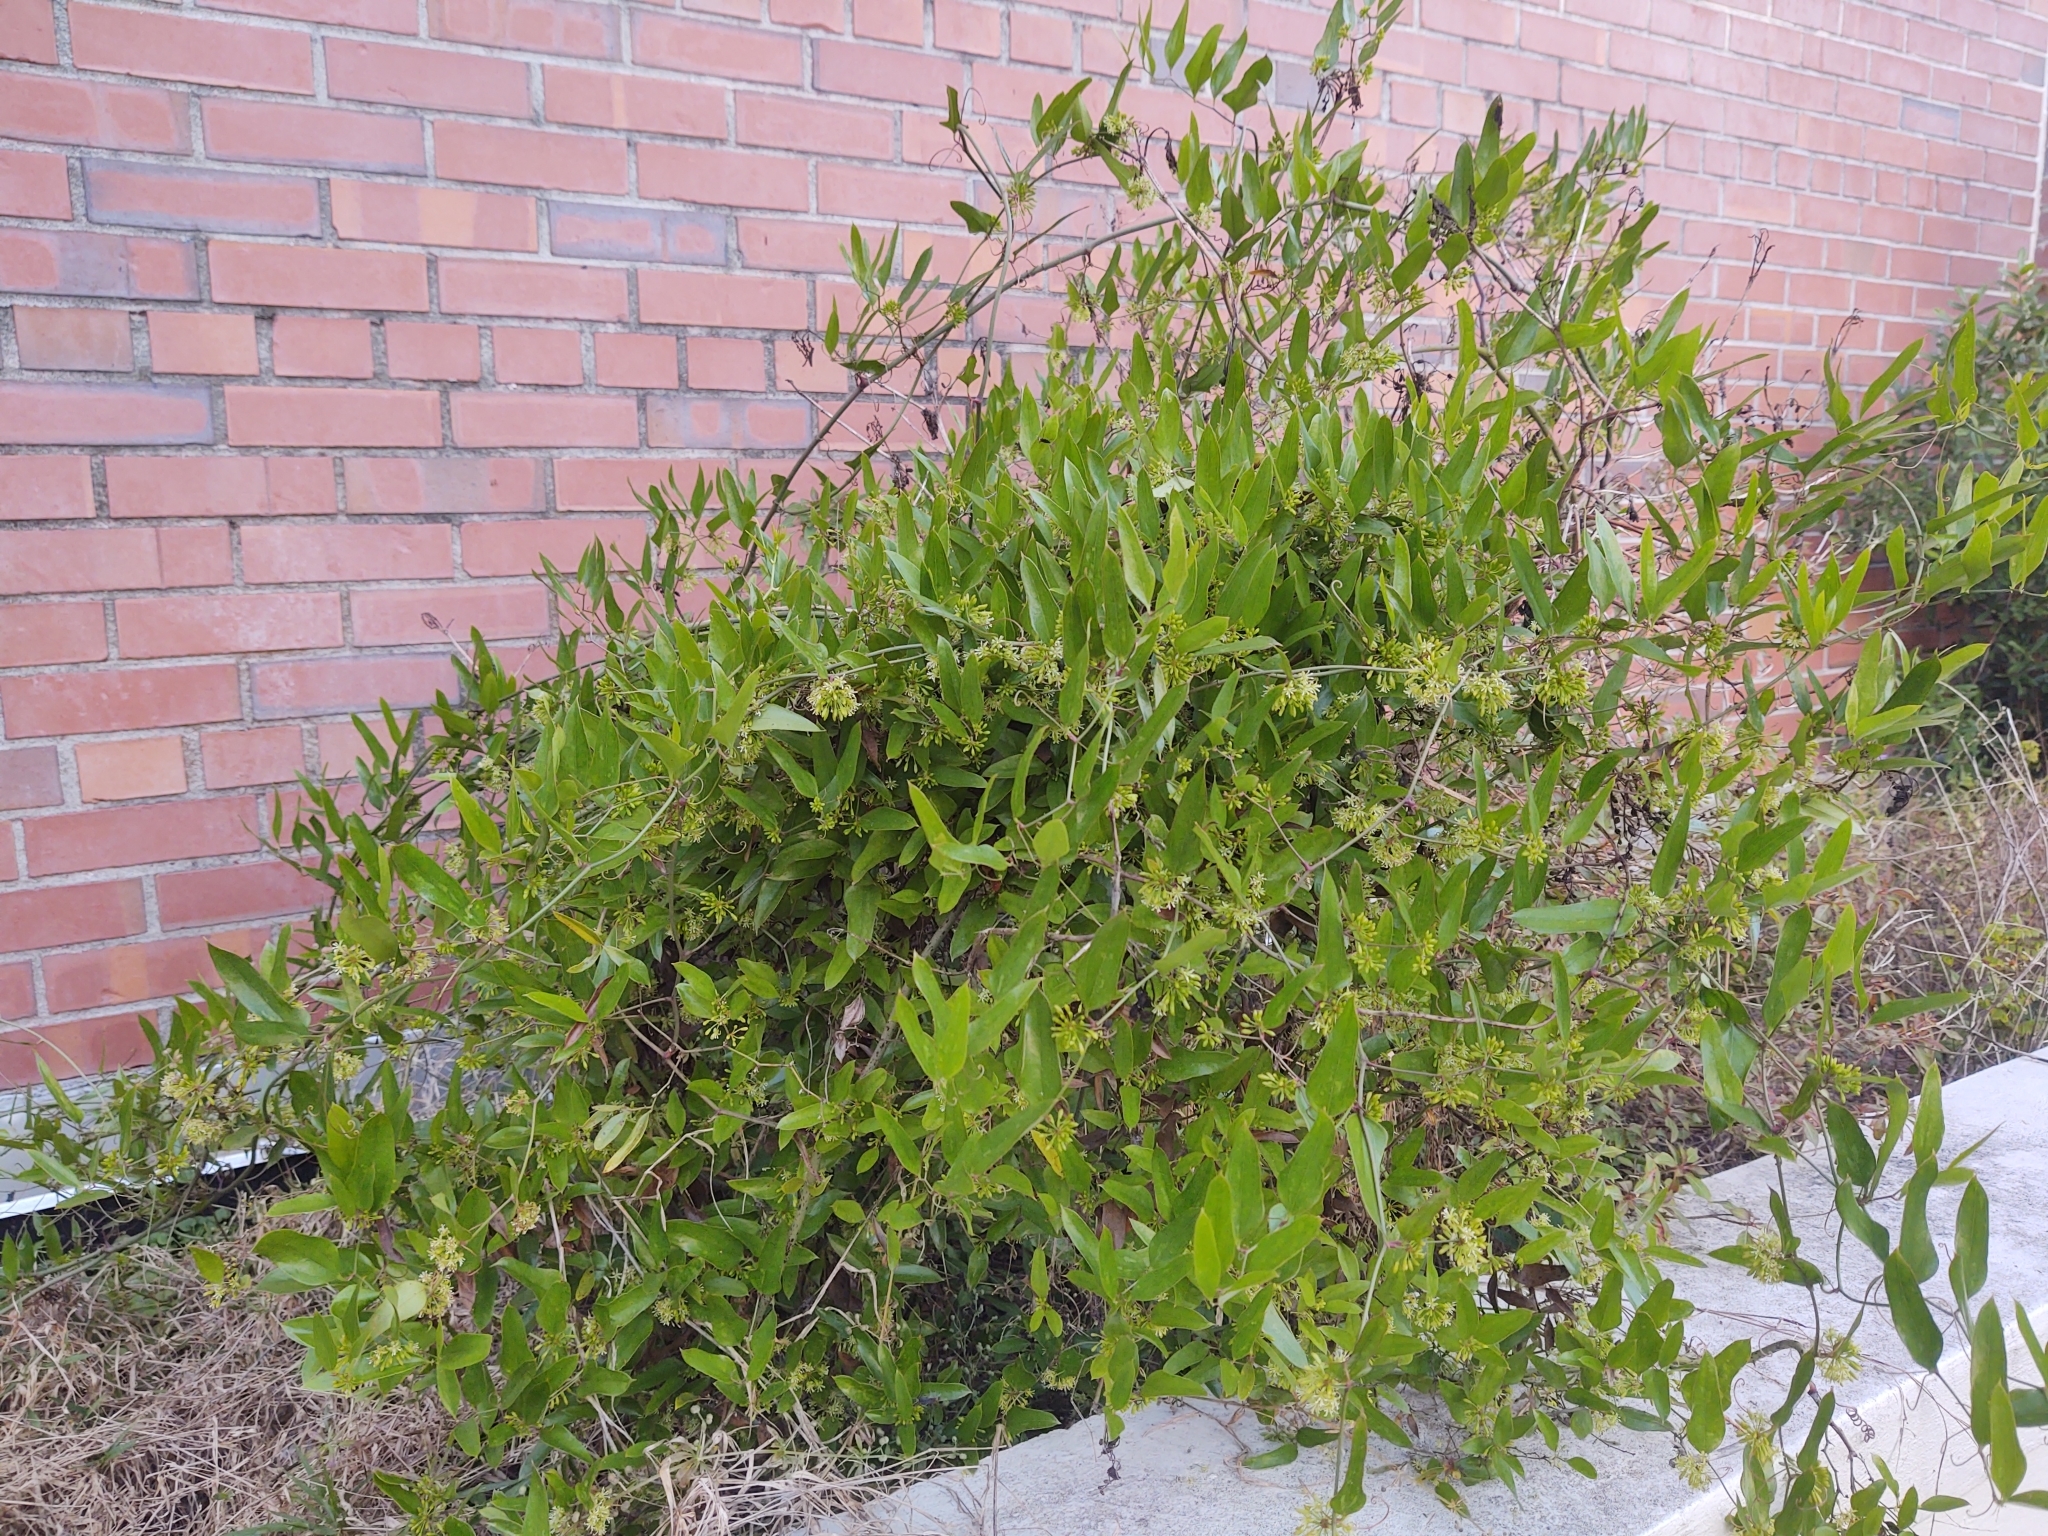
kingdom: Plantae
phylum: Tracheophyta
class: Liliopsida
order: Liliales
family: Smilacaceae
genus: Smilax
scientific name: Smilax auriculata
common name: Wild bamboo
